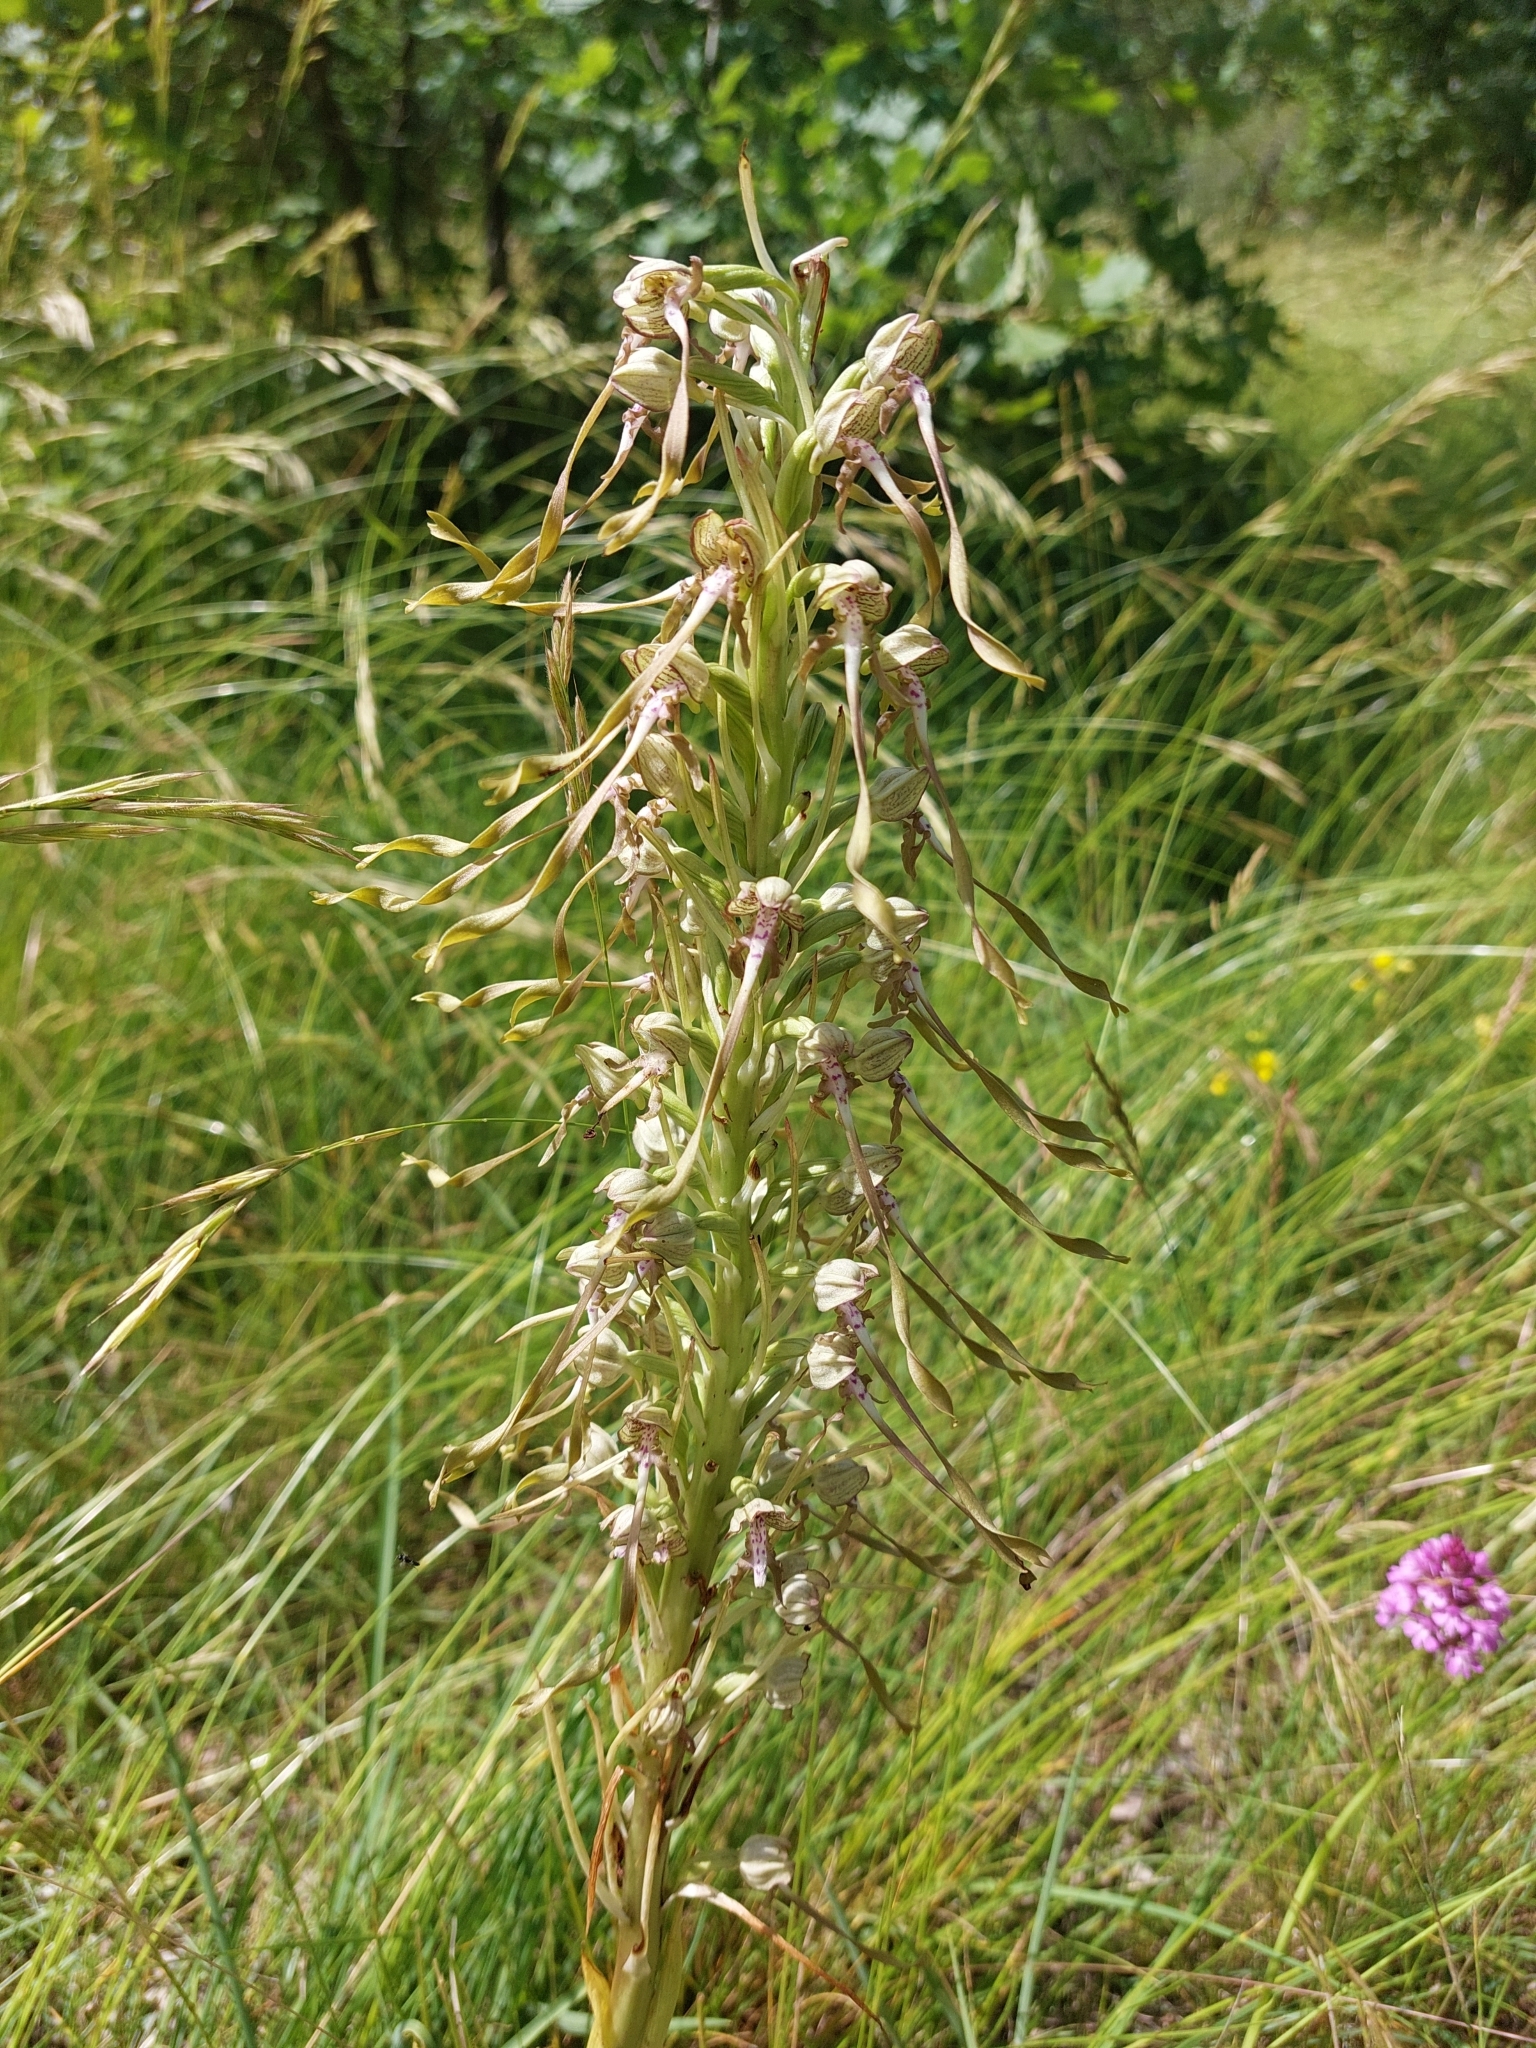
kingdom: Plantae
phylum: Tracheophyta
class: Liliopsida
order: Asparagales
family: Orchidaceae
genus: Himantoglossum
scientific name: Himantoglossum hircinum
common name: Lizard orchid
